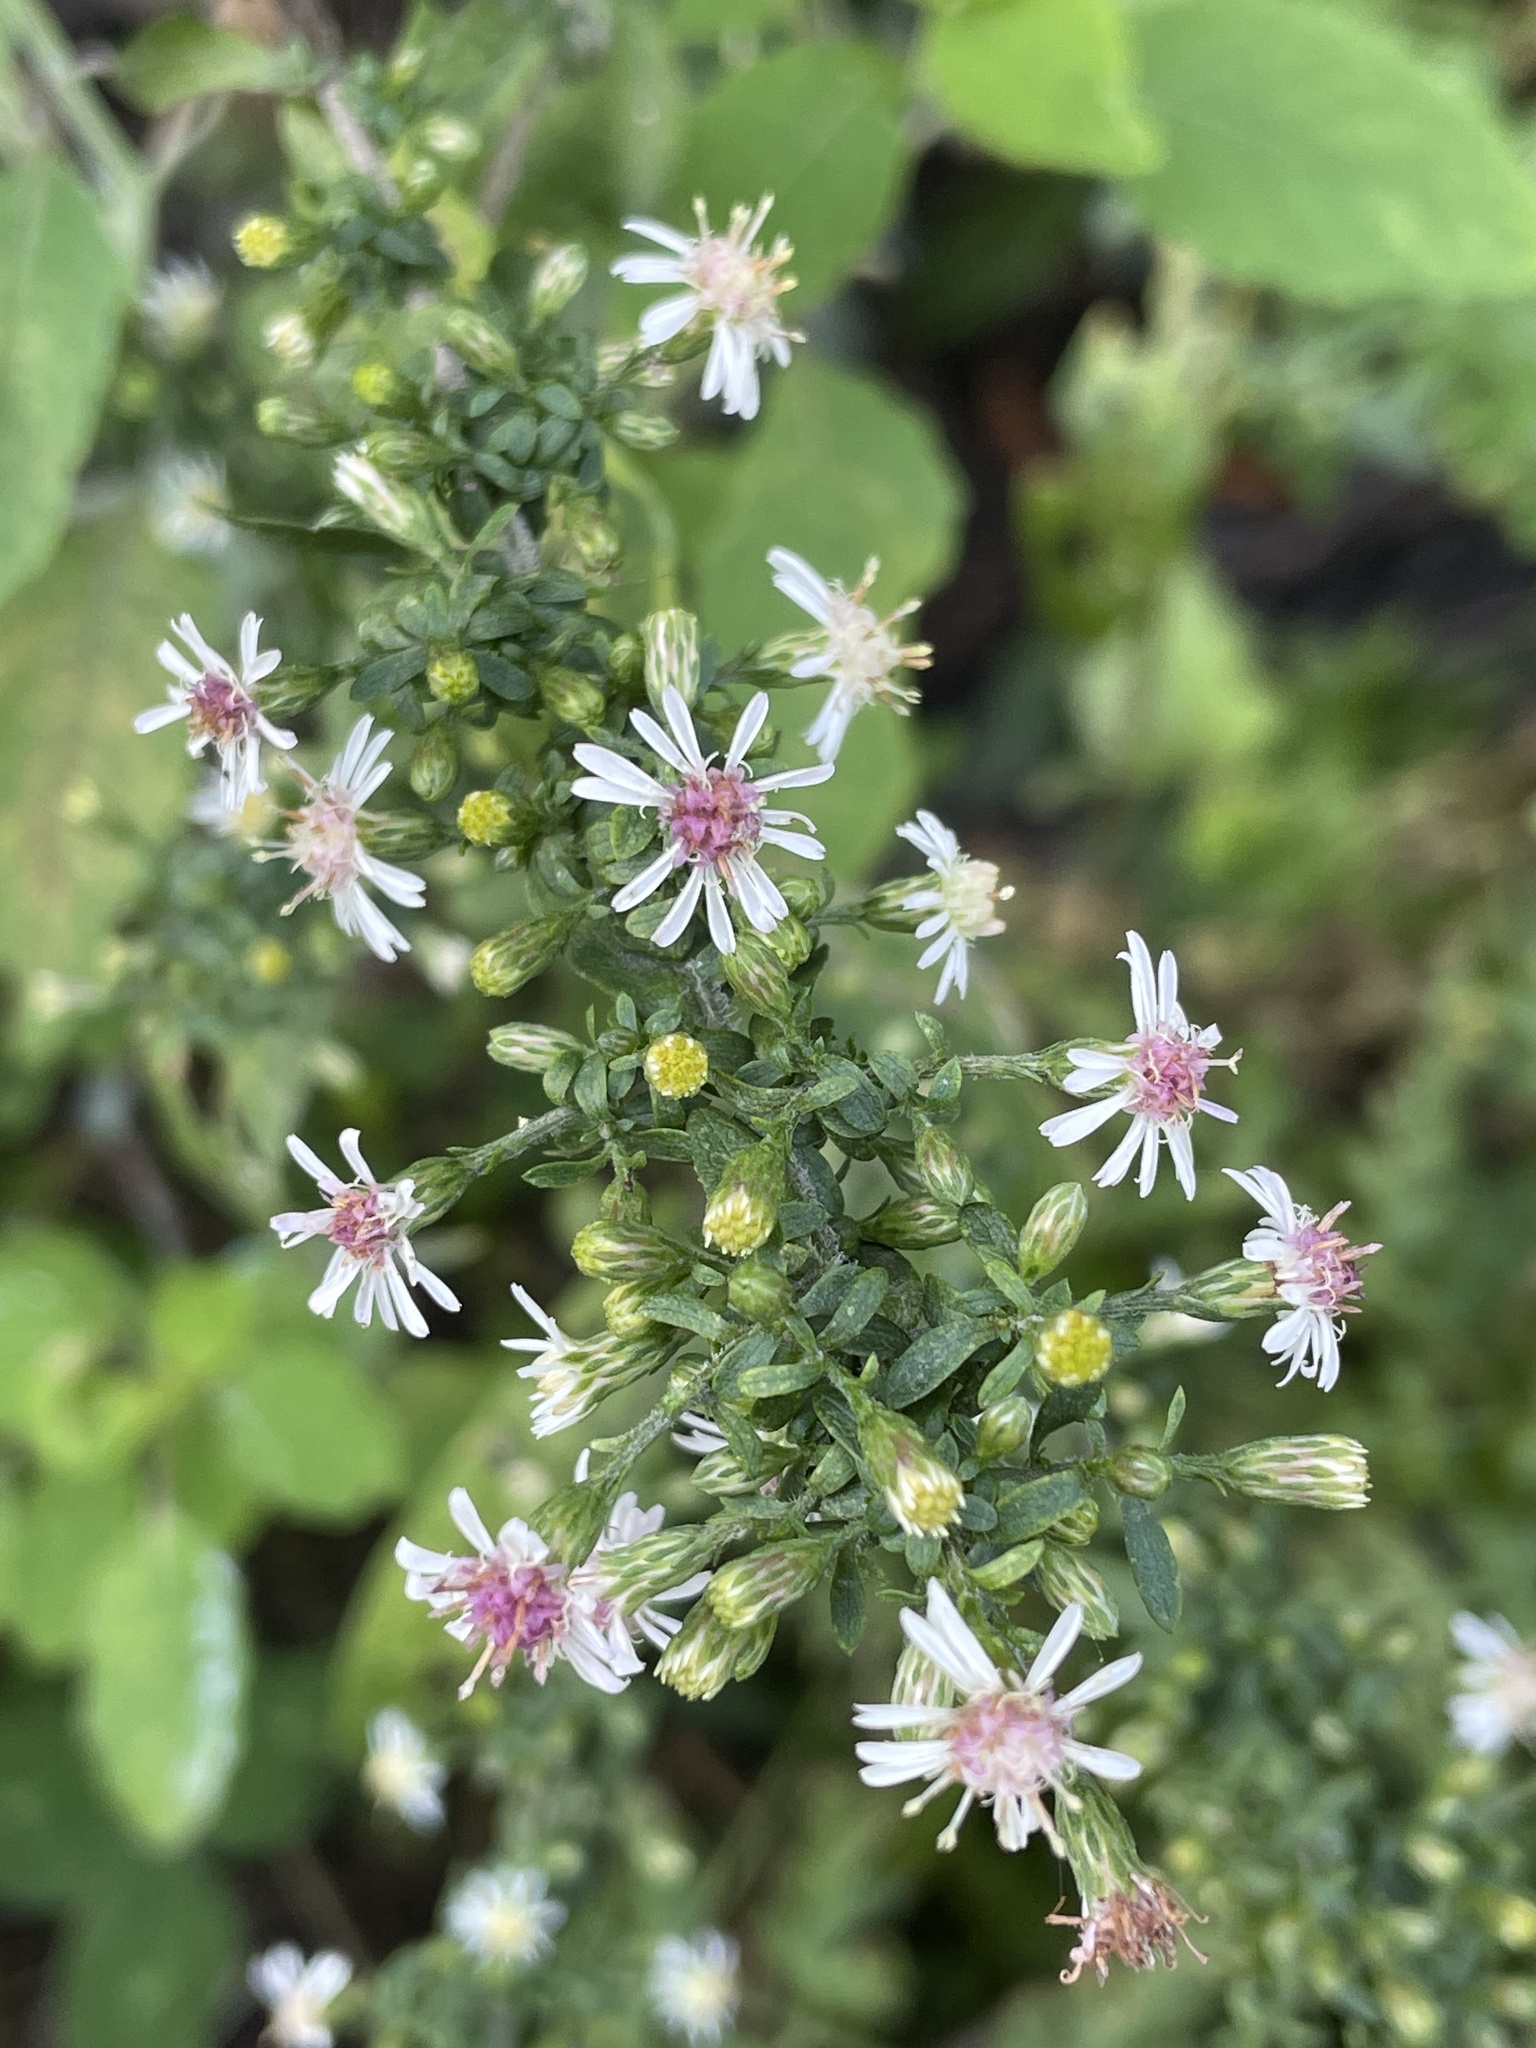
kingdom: Plantae
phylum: Tracheophyta
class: Magnoliopsida
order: Asterales
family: Asteraceae
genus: Symphyotrichum
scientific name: Symphyotrichum lateriflorum
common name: Calico aster
